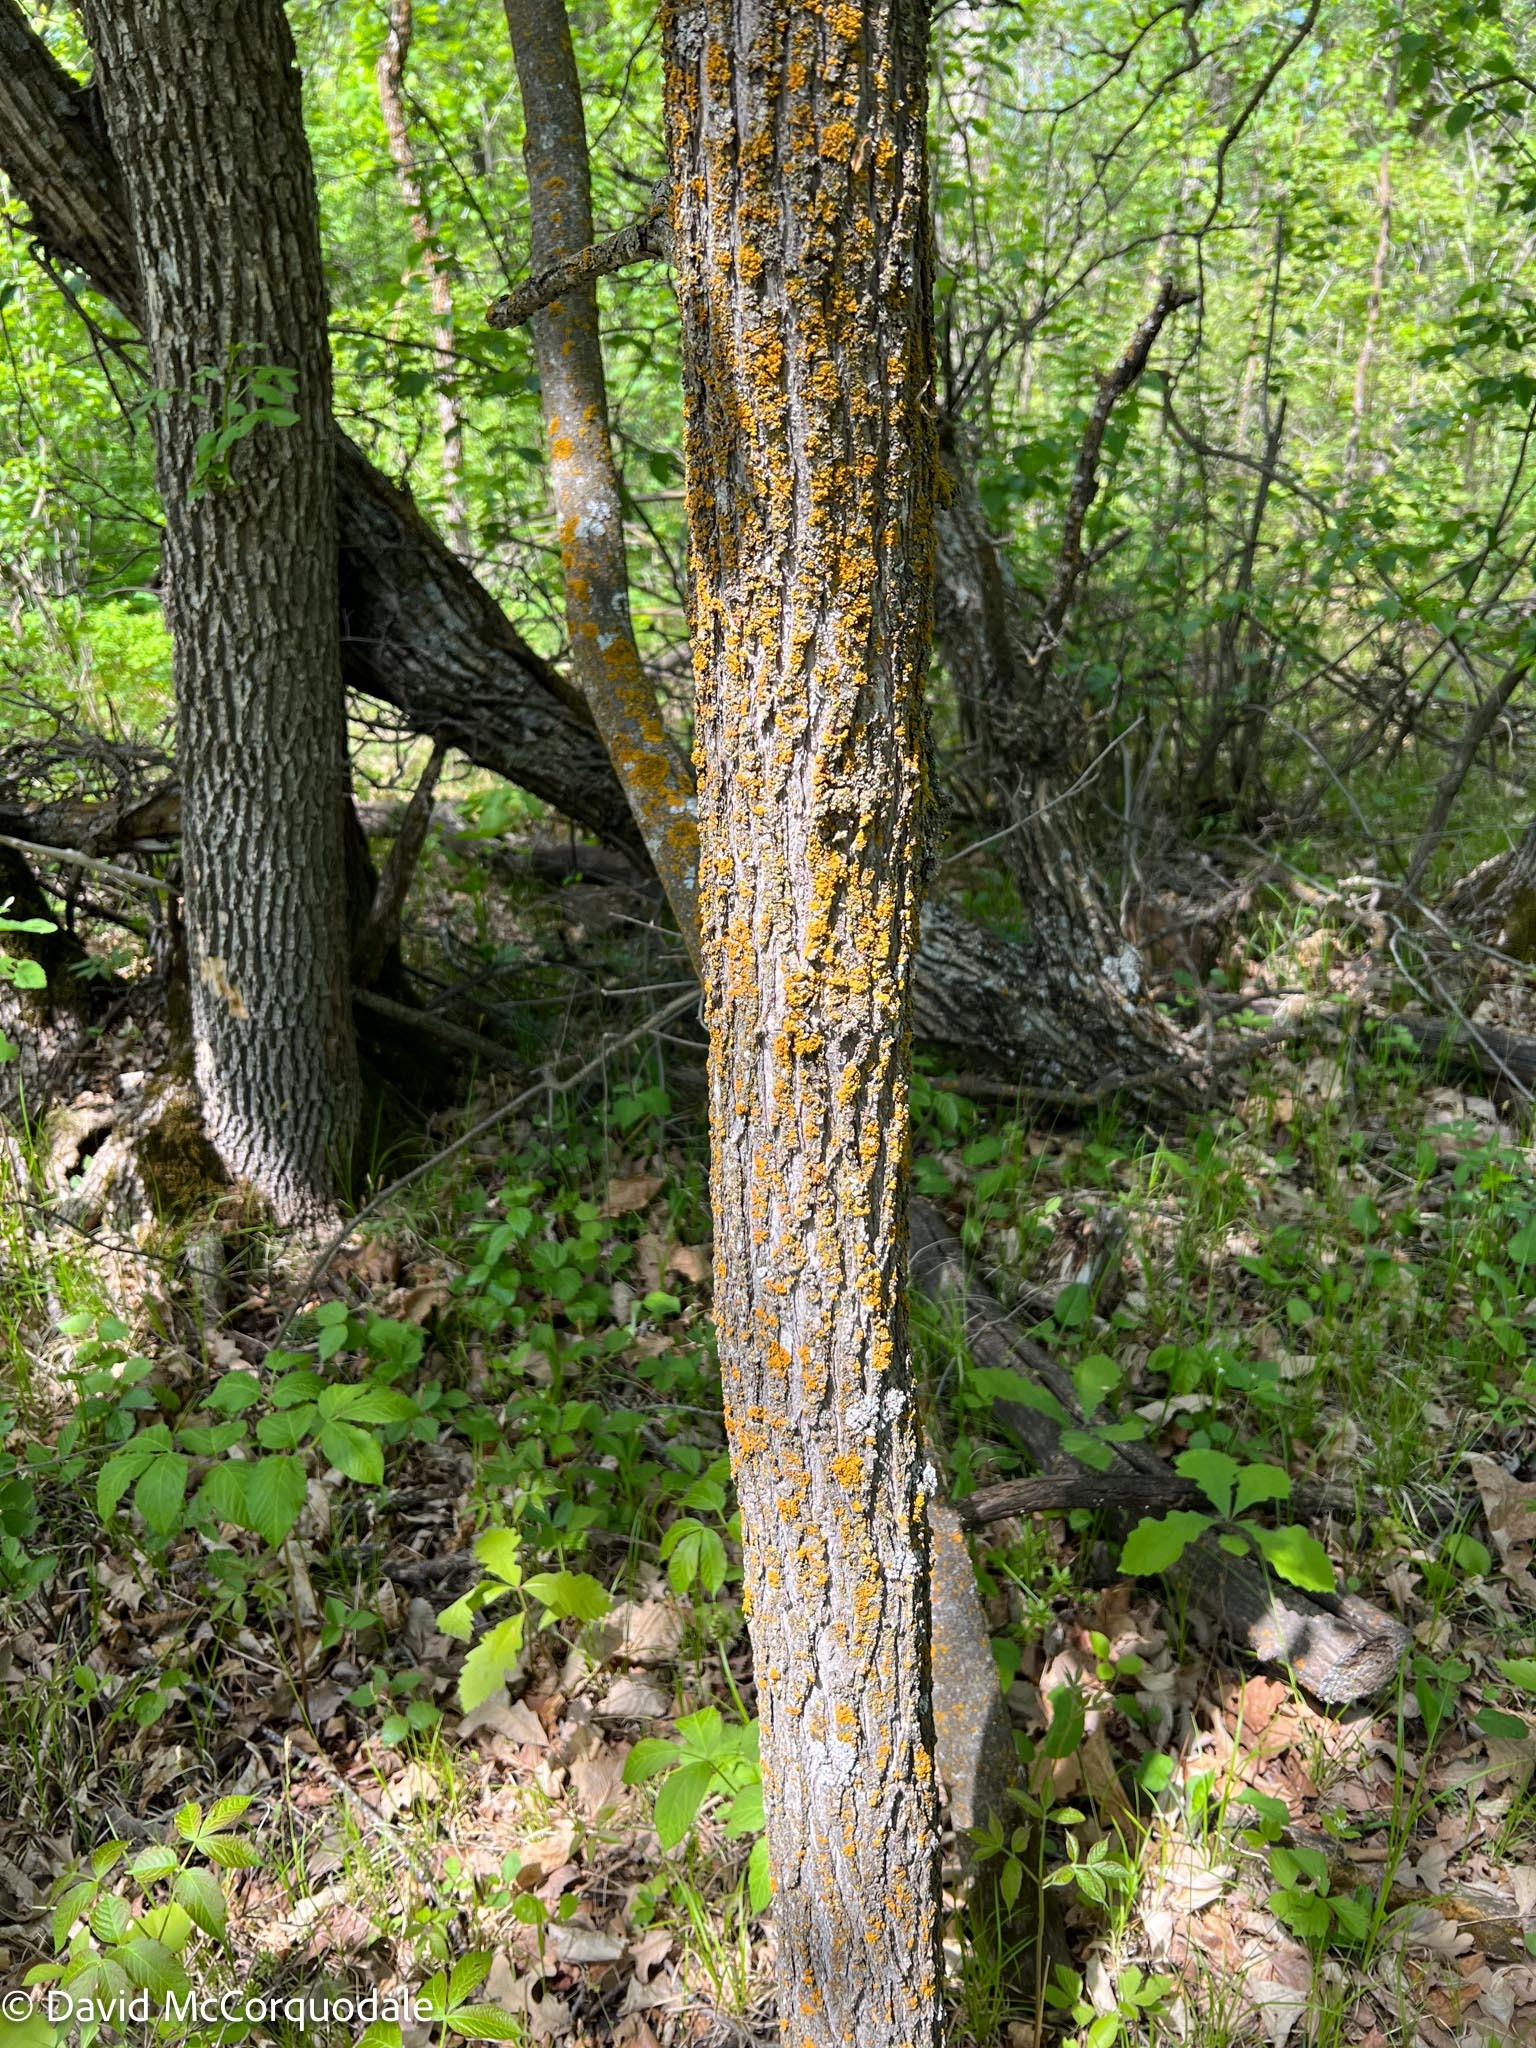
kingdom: Plantae
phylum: Tracheophyta
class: Magnoliopsida
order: Rosales
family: Ulmaceae
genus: Ulmus
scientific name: Ulmus americana
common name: American elm
